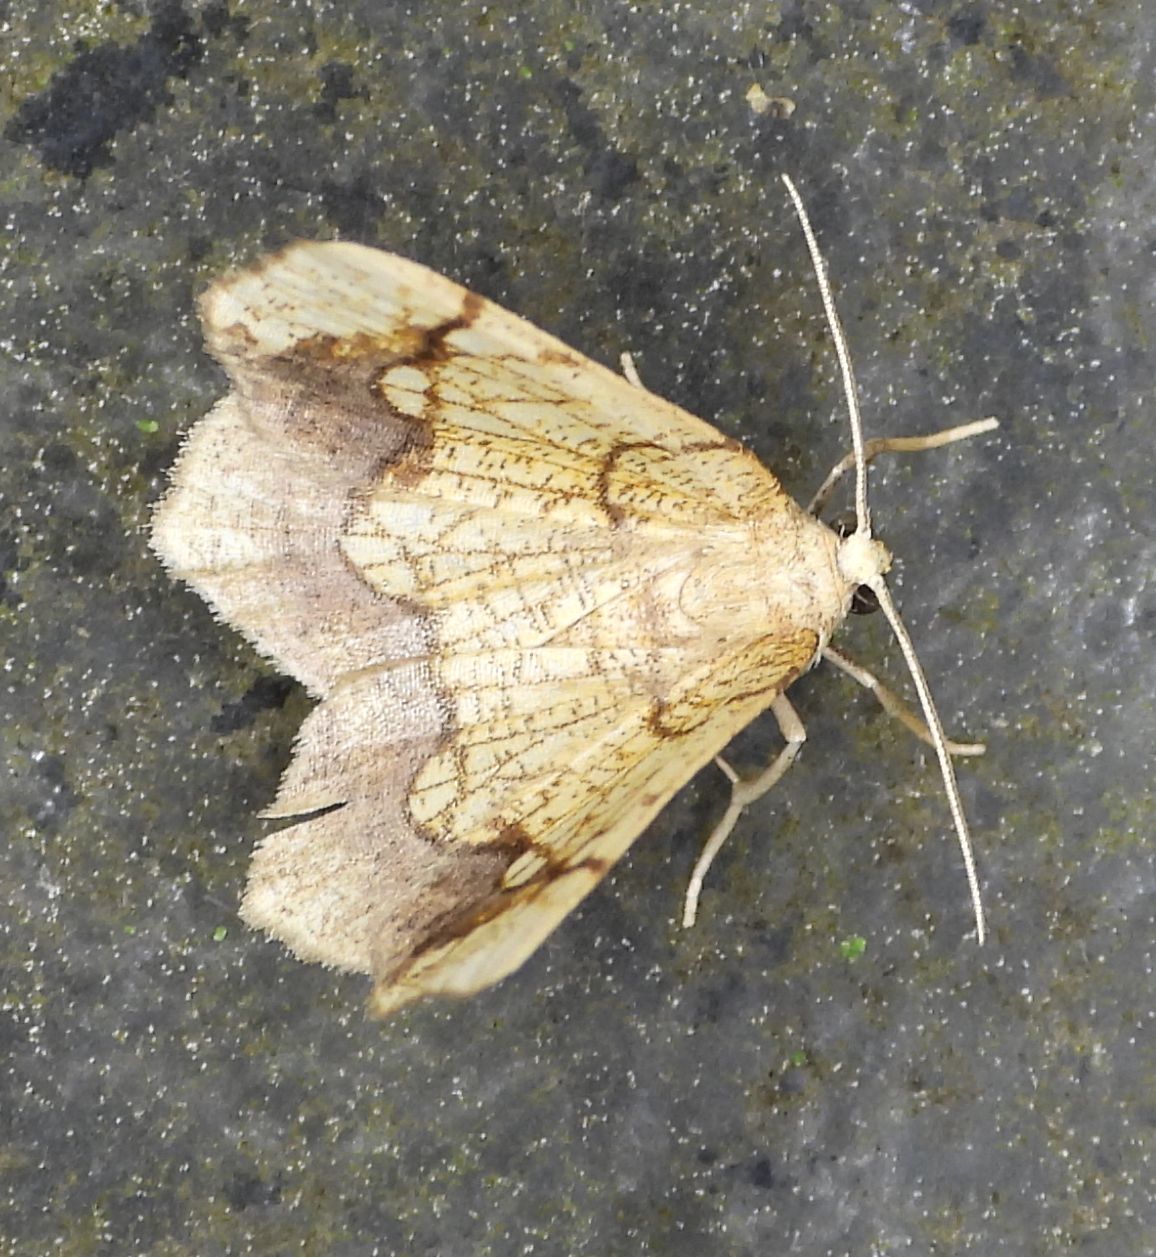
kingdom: Animalia
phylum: Arthropoda
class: Insecta
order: Lepidoptera
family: Geometridae
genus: Nematocampa
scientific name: Nematocampa resistaria
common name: Horned spanworm moth
